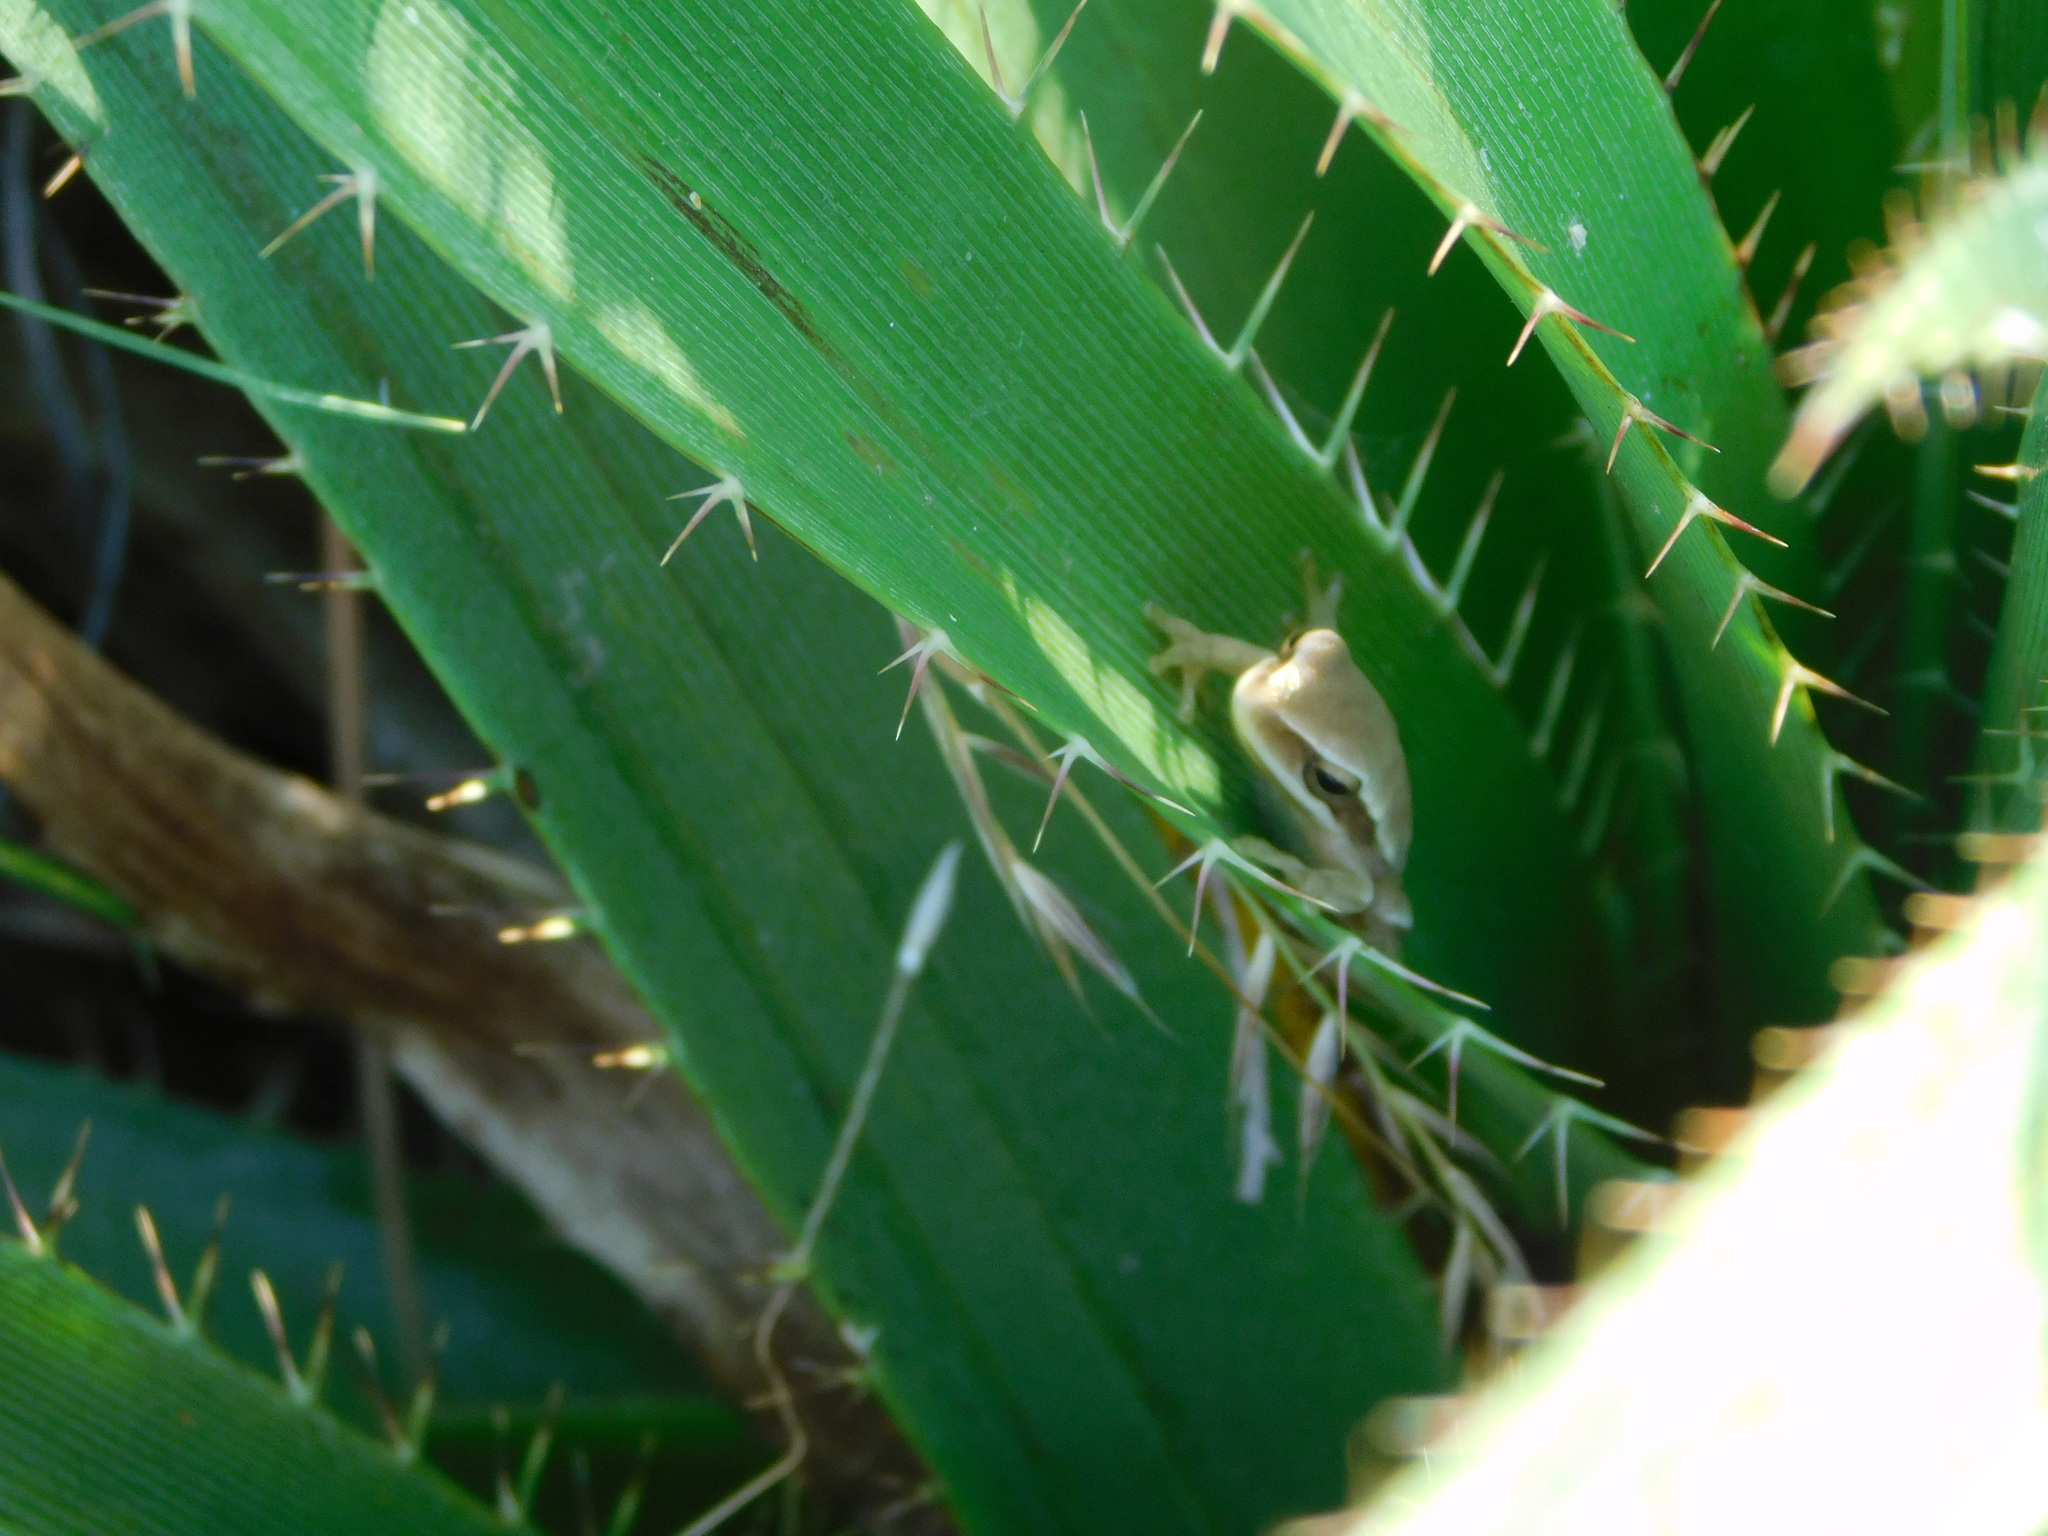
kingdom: Animalia
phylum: Chordata
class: Amphibia
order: Anura
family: Hylidae
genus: Boana
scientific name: Boana pulchella
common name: Montevideo treefrog
